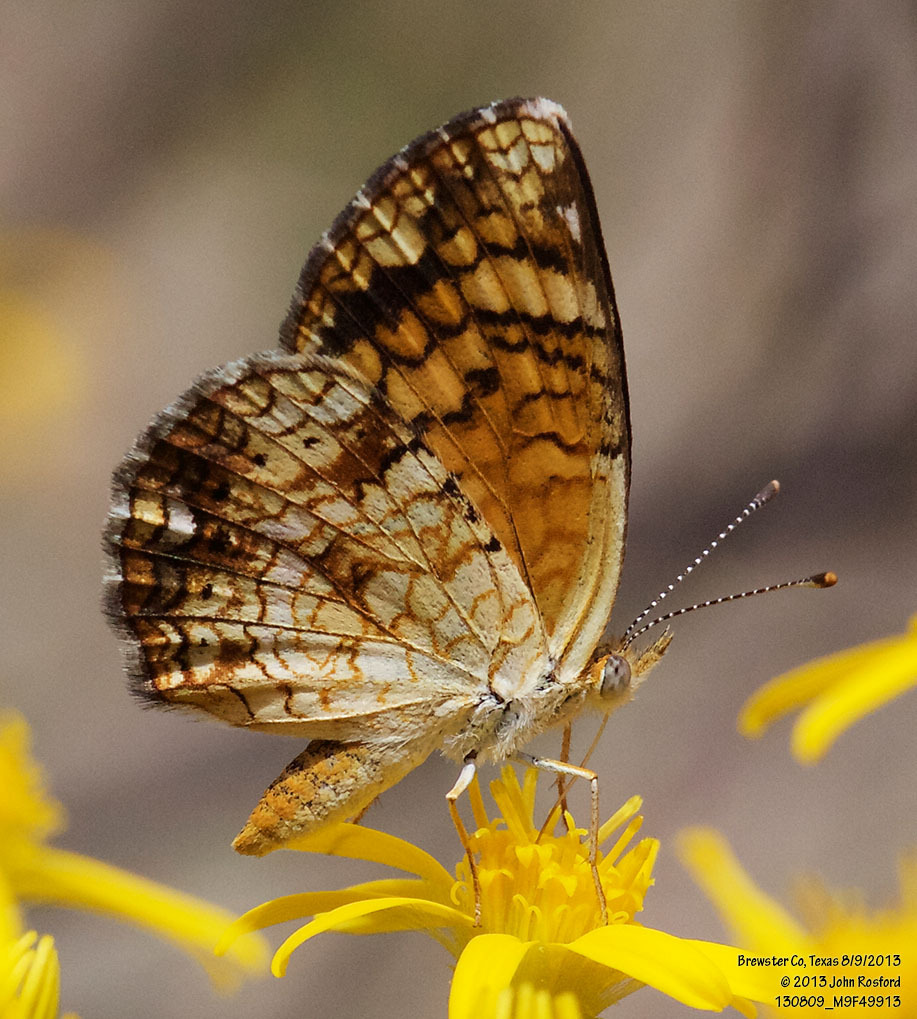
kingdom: Animalia
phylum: Arthropoda
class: Insecta
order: Lepidoptera
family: Nymphalidae
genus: Phyciodes
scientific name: Phyciodes vesta
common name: Vesta crescent
